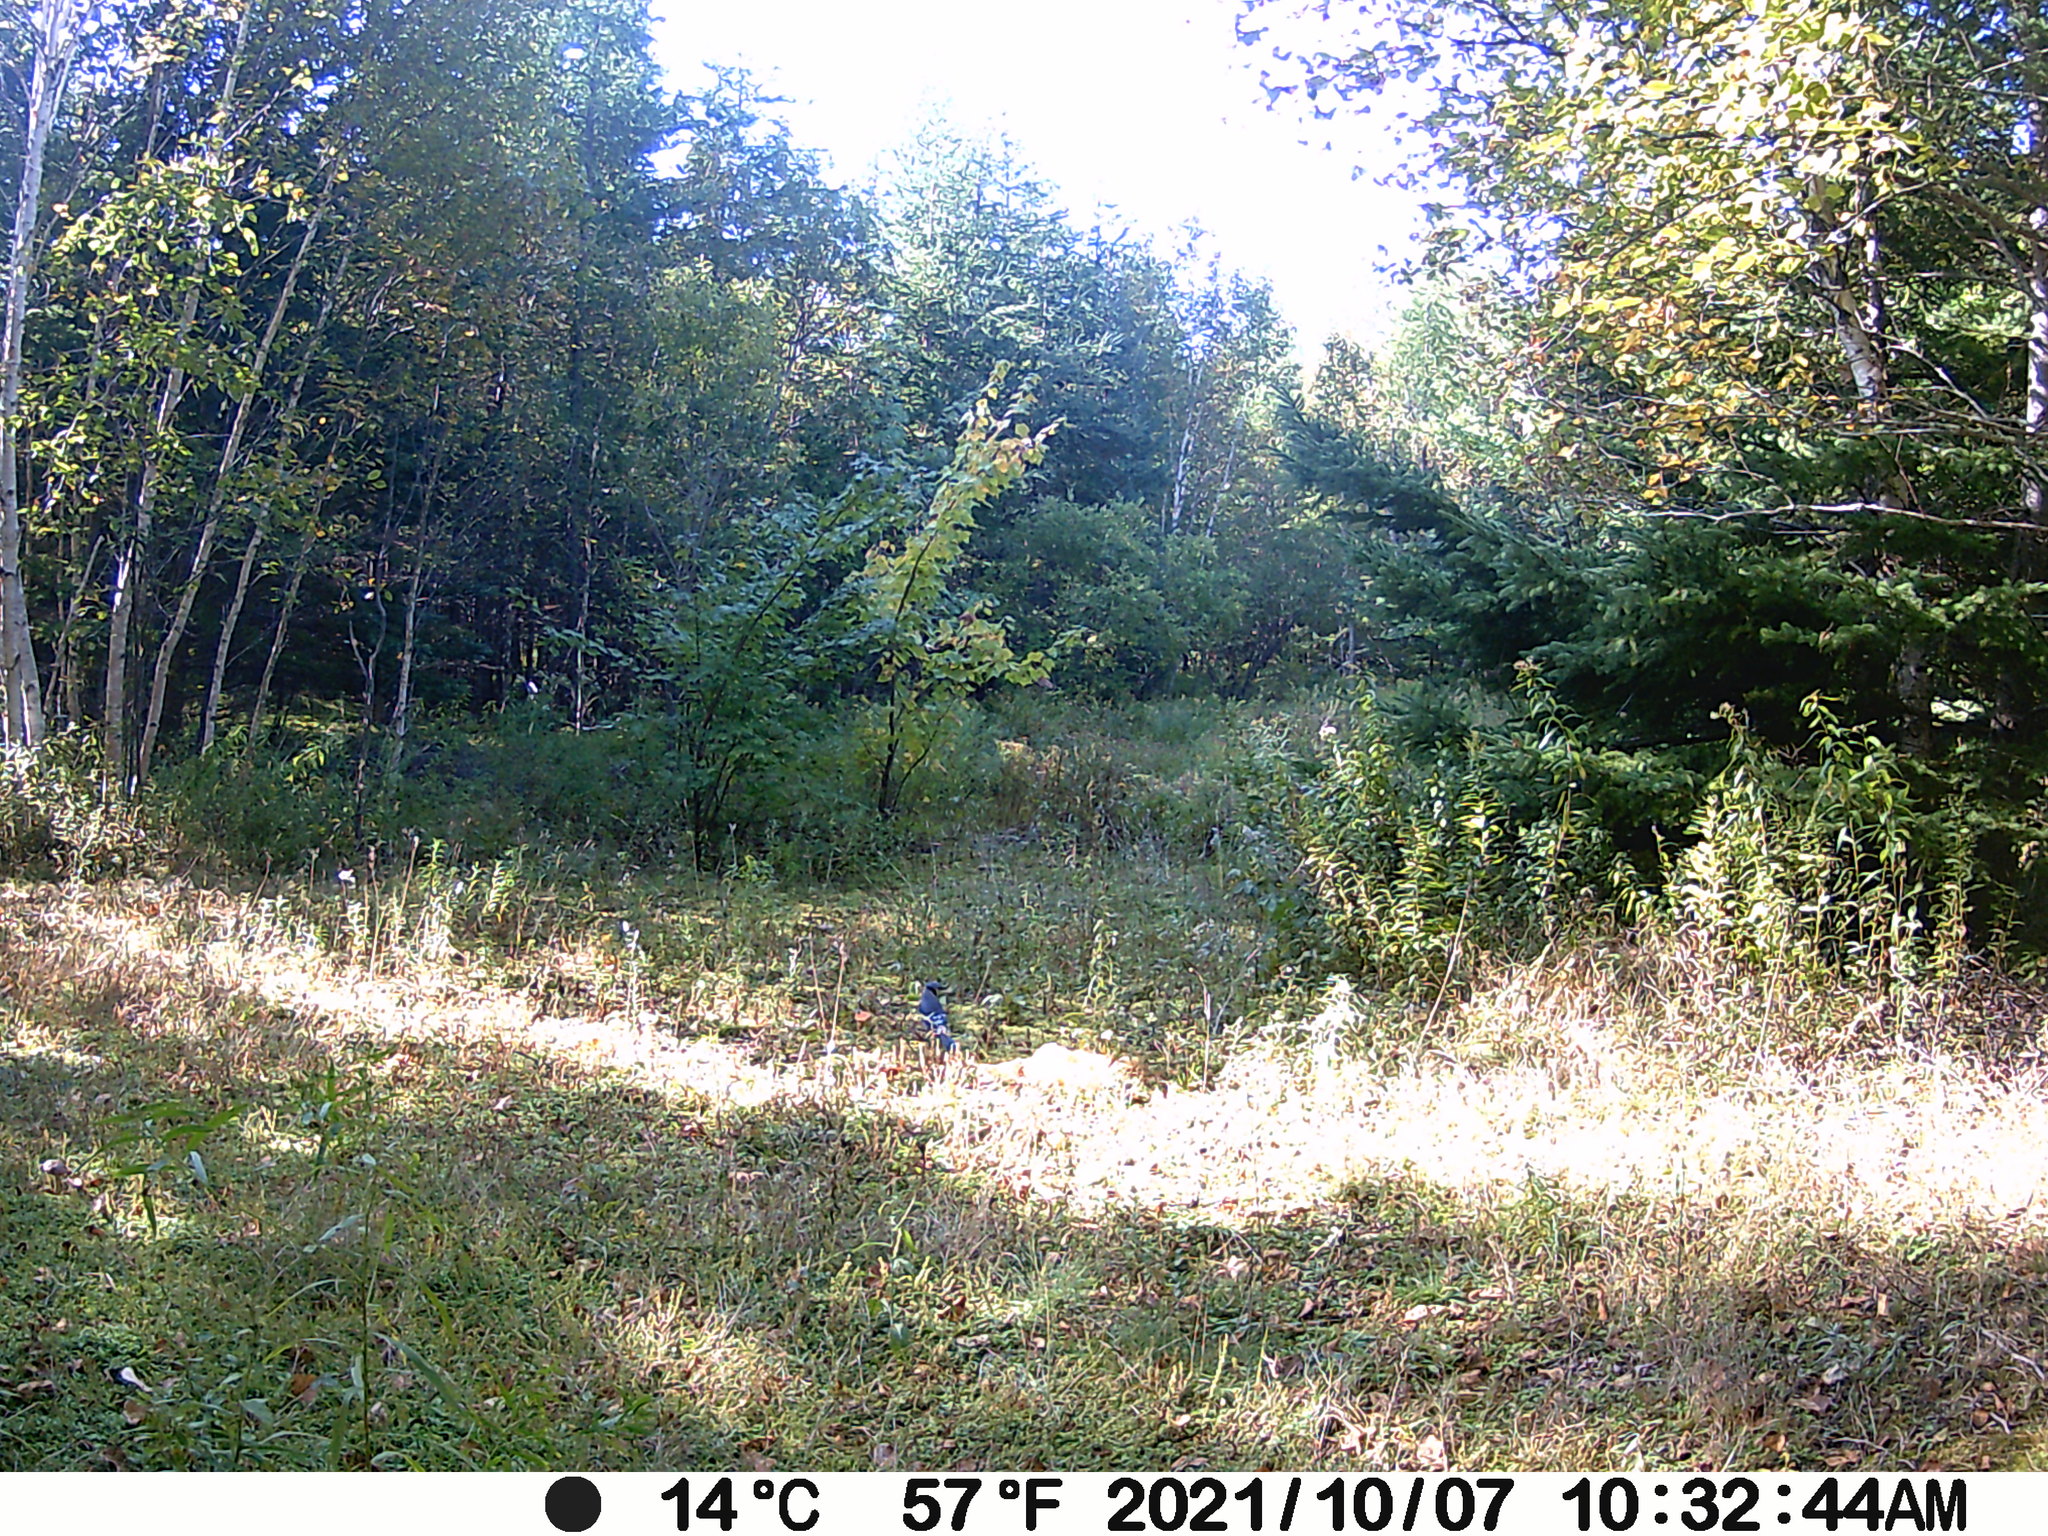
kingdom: Animalia
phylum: Chordata
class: Aves
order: Passeriformes
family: Corvidae
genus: Cyanocitta
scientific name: Cyanocitta cristata
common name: Blue jay
